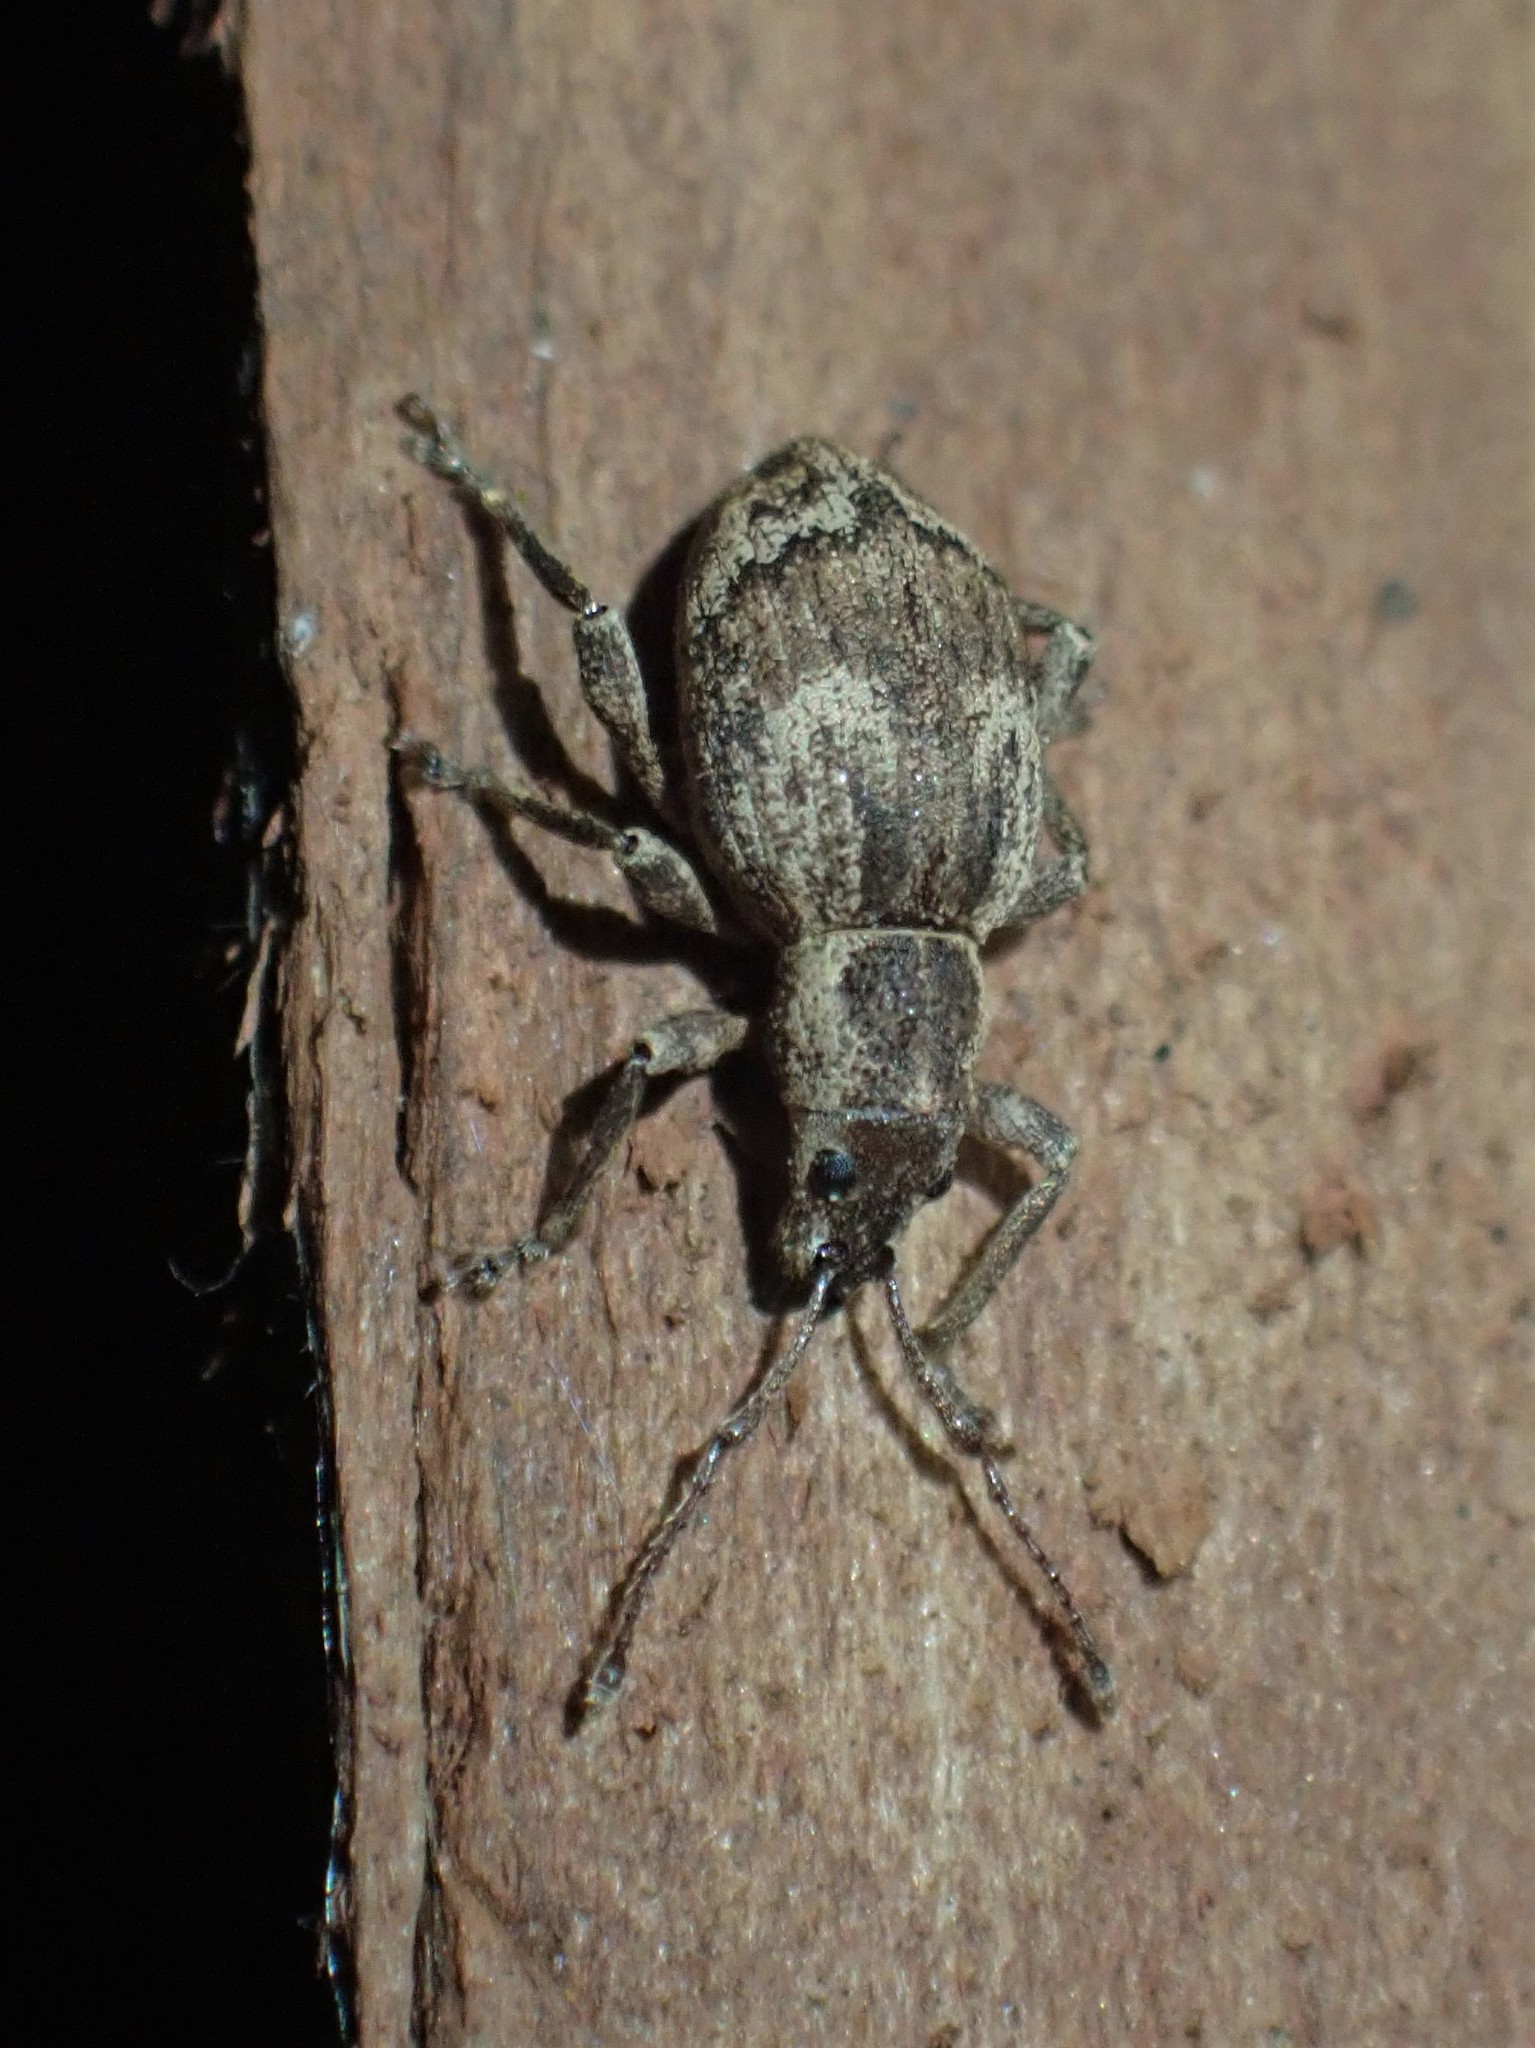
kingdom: Animalia
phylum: Arthropoda
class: Insecta
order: Coleoptera
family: Curculionidae
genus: Sciopithes
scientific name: Sciopithes obscurus
